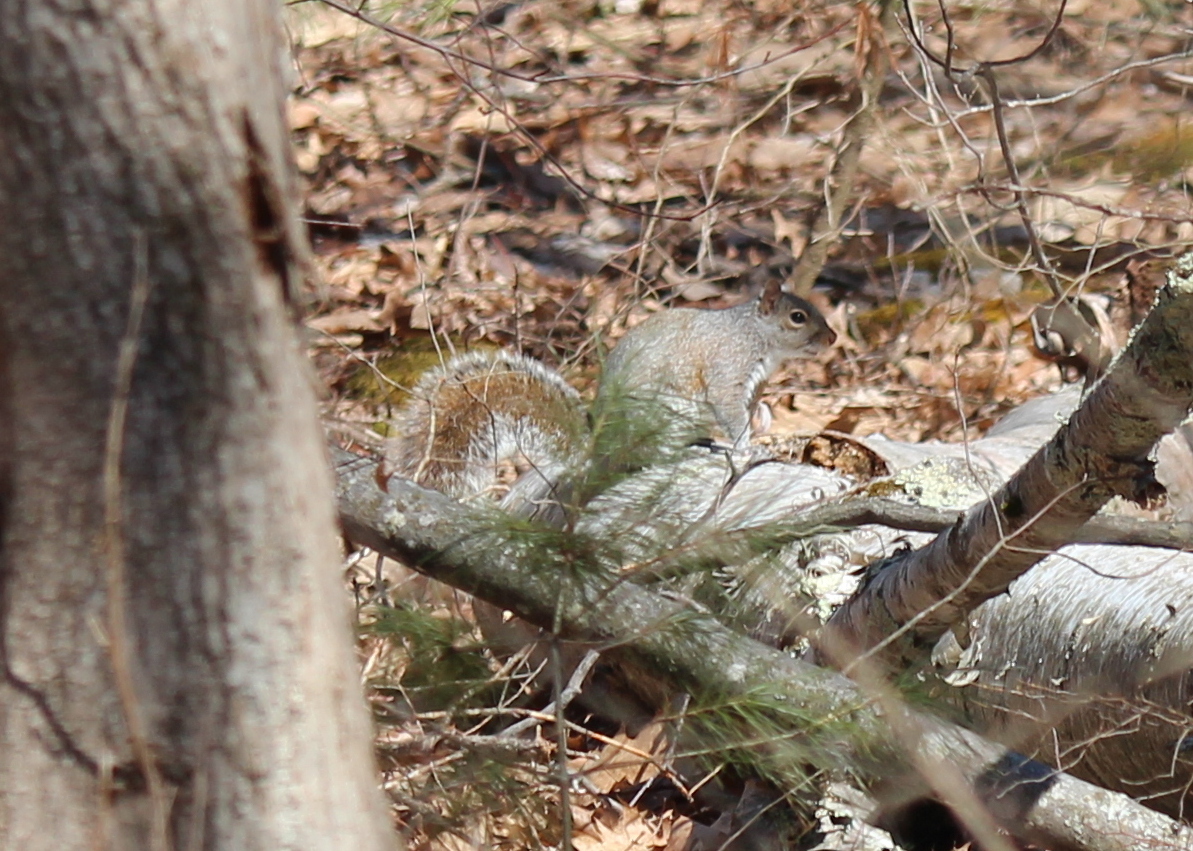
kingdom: Animalia
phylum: Chordata
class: Mammalia
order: Rodentia
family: Sciuridae
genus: Sciurus
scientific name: Sciurus carolinensis
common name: Eastern gray squirrel
